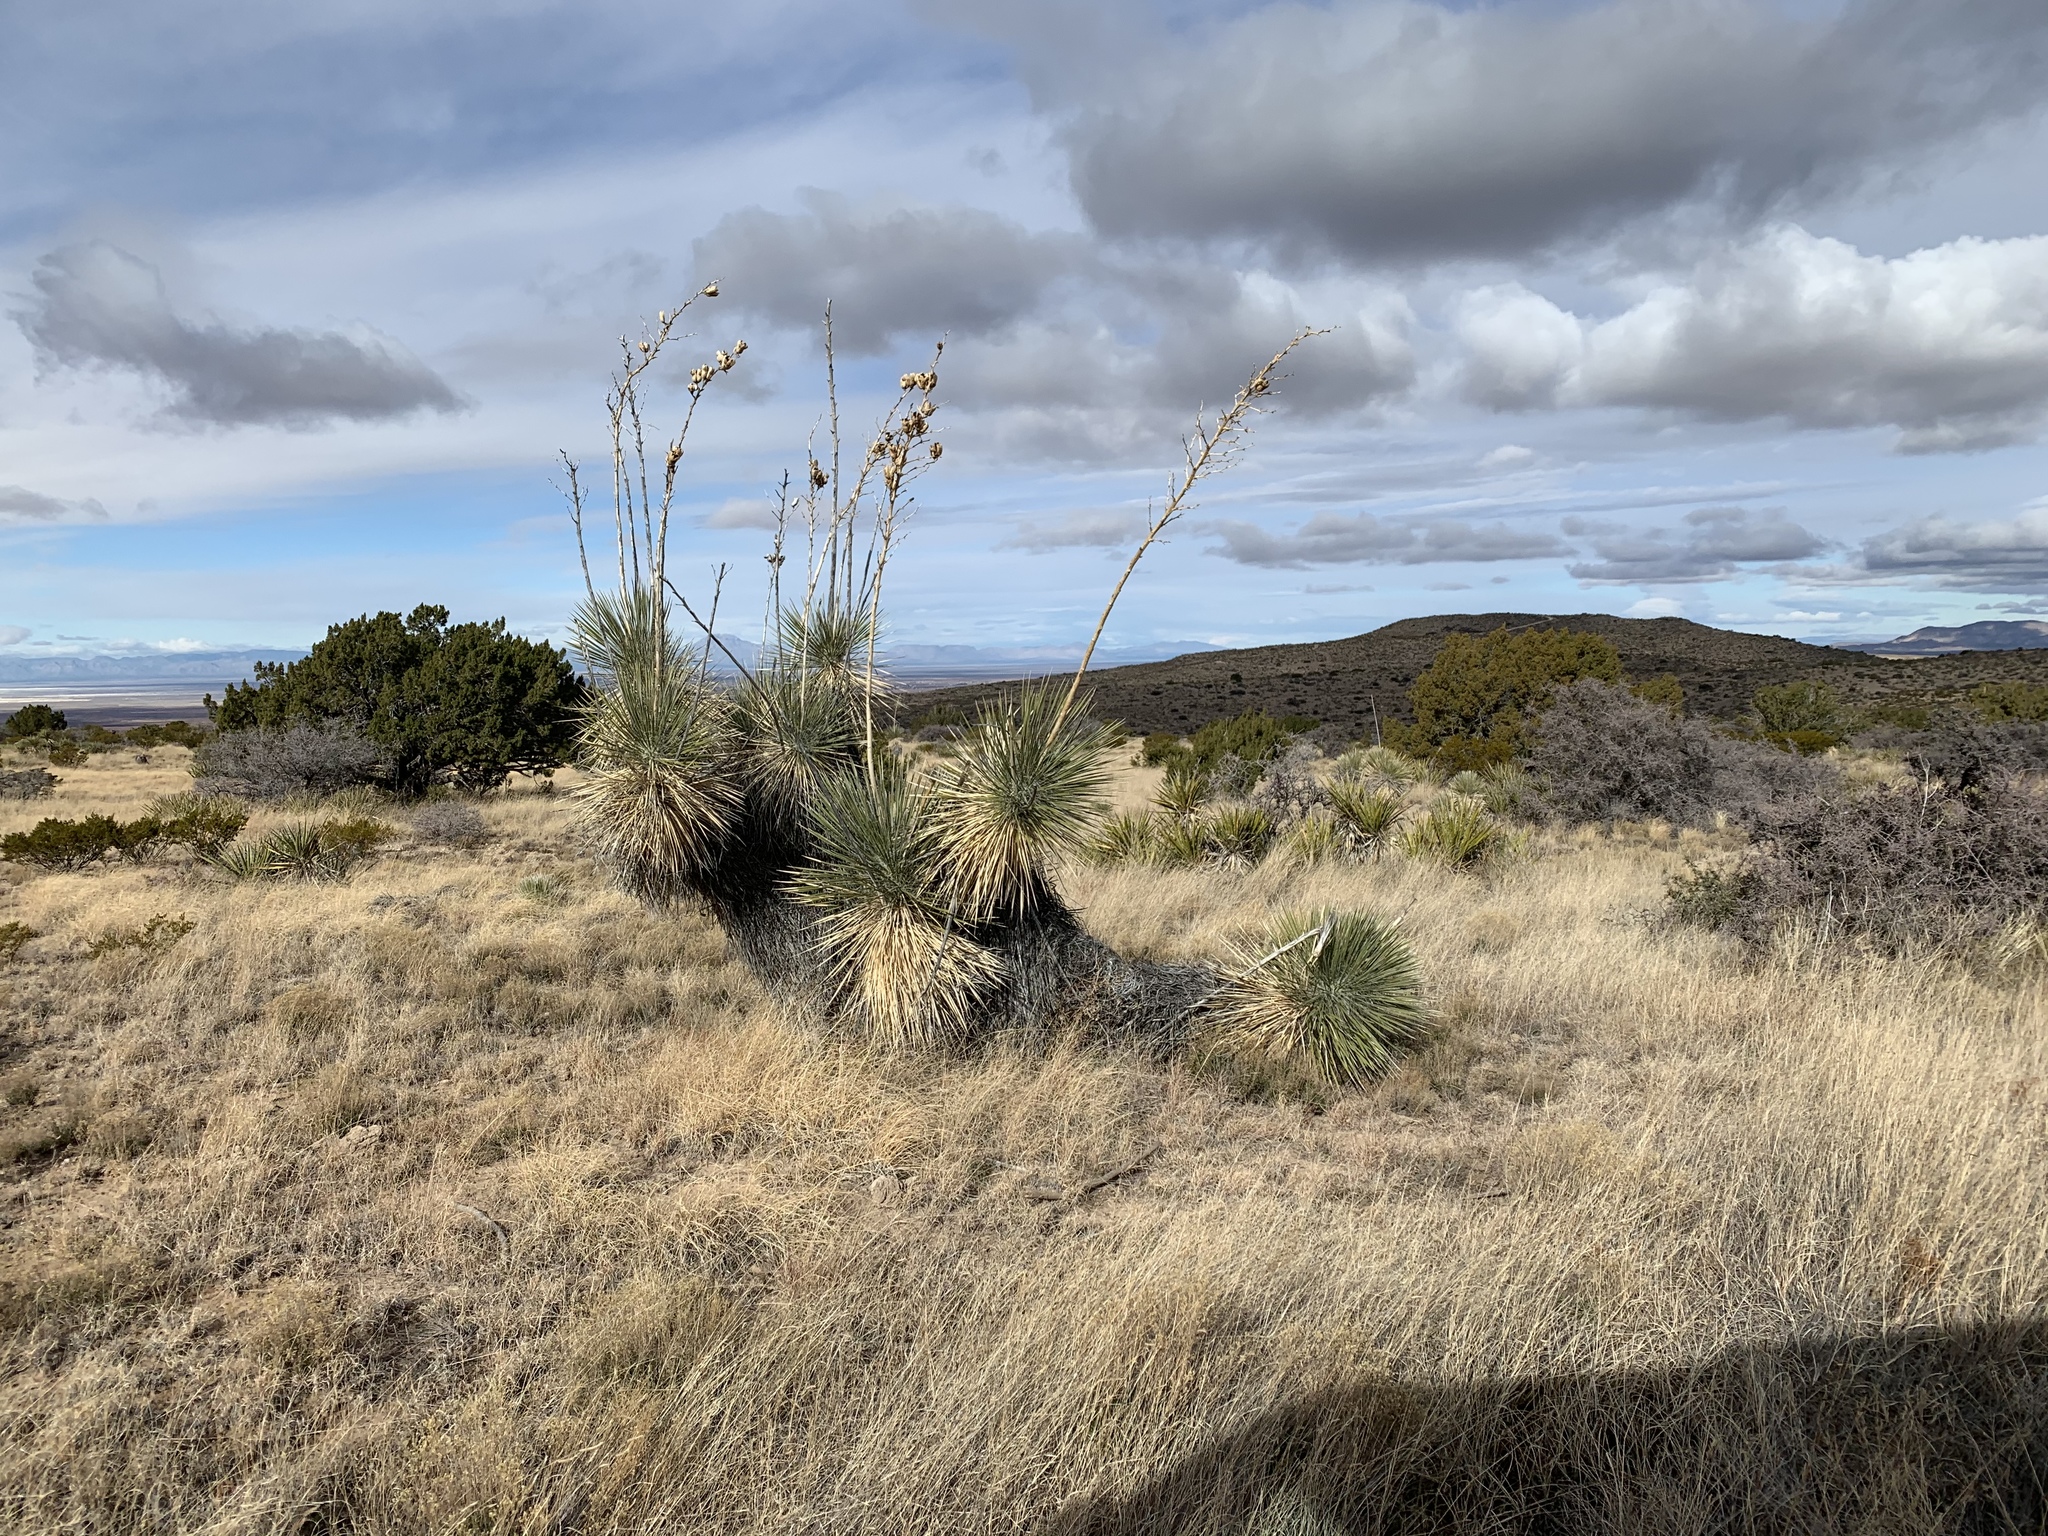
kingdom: Plantae
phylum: Tracheophyta
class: Liliopsida
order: Asparagales
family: Asparagaceae
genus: Yucca
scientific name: Yucca elata
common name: Palmella
